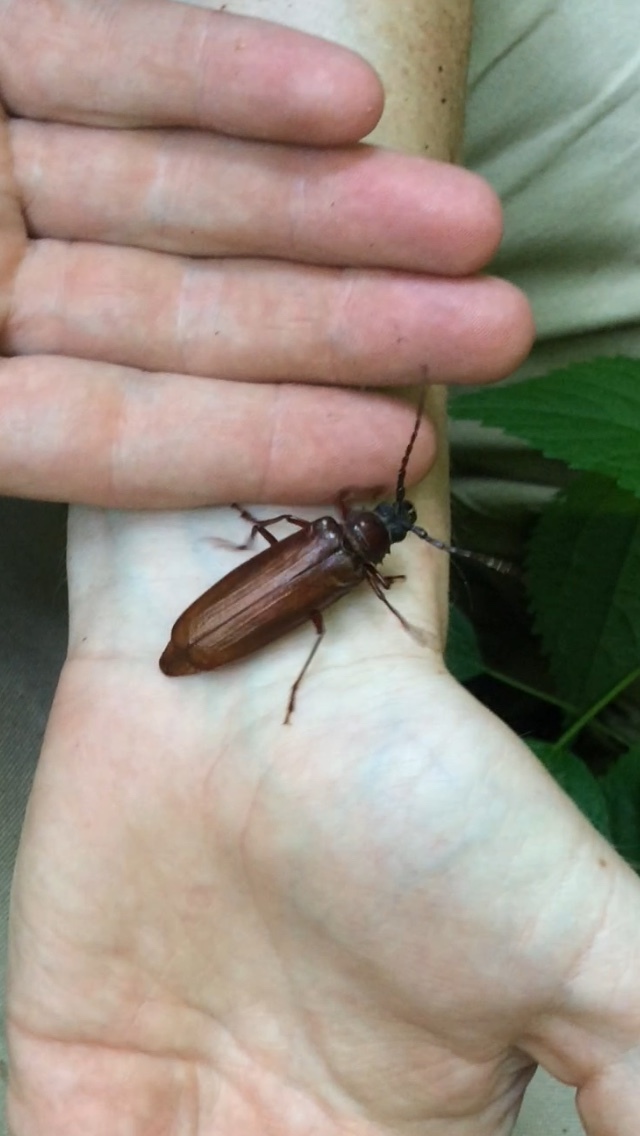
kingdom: Animalia
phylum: Arthropoda
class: Insecta
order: Coleoptera
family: Cerambycidae
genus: Orthosoma
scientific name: Orthosoma brunneum
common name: Brown prionid beetle
